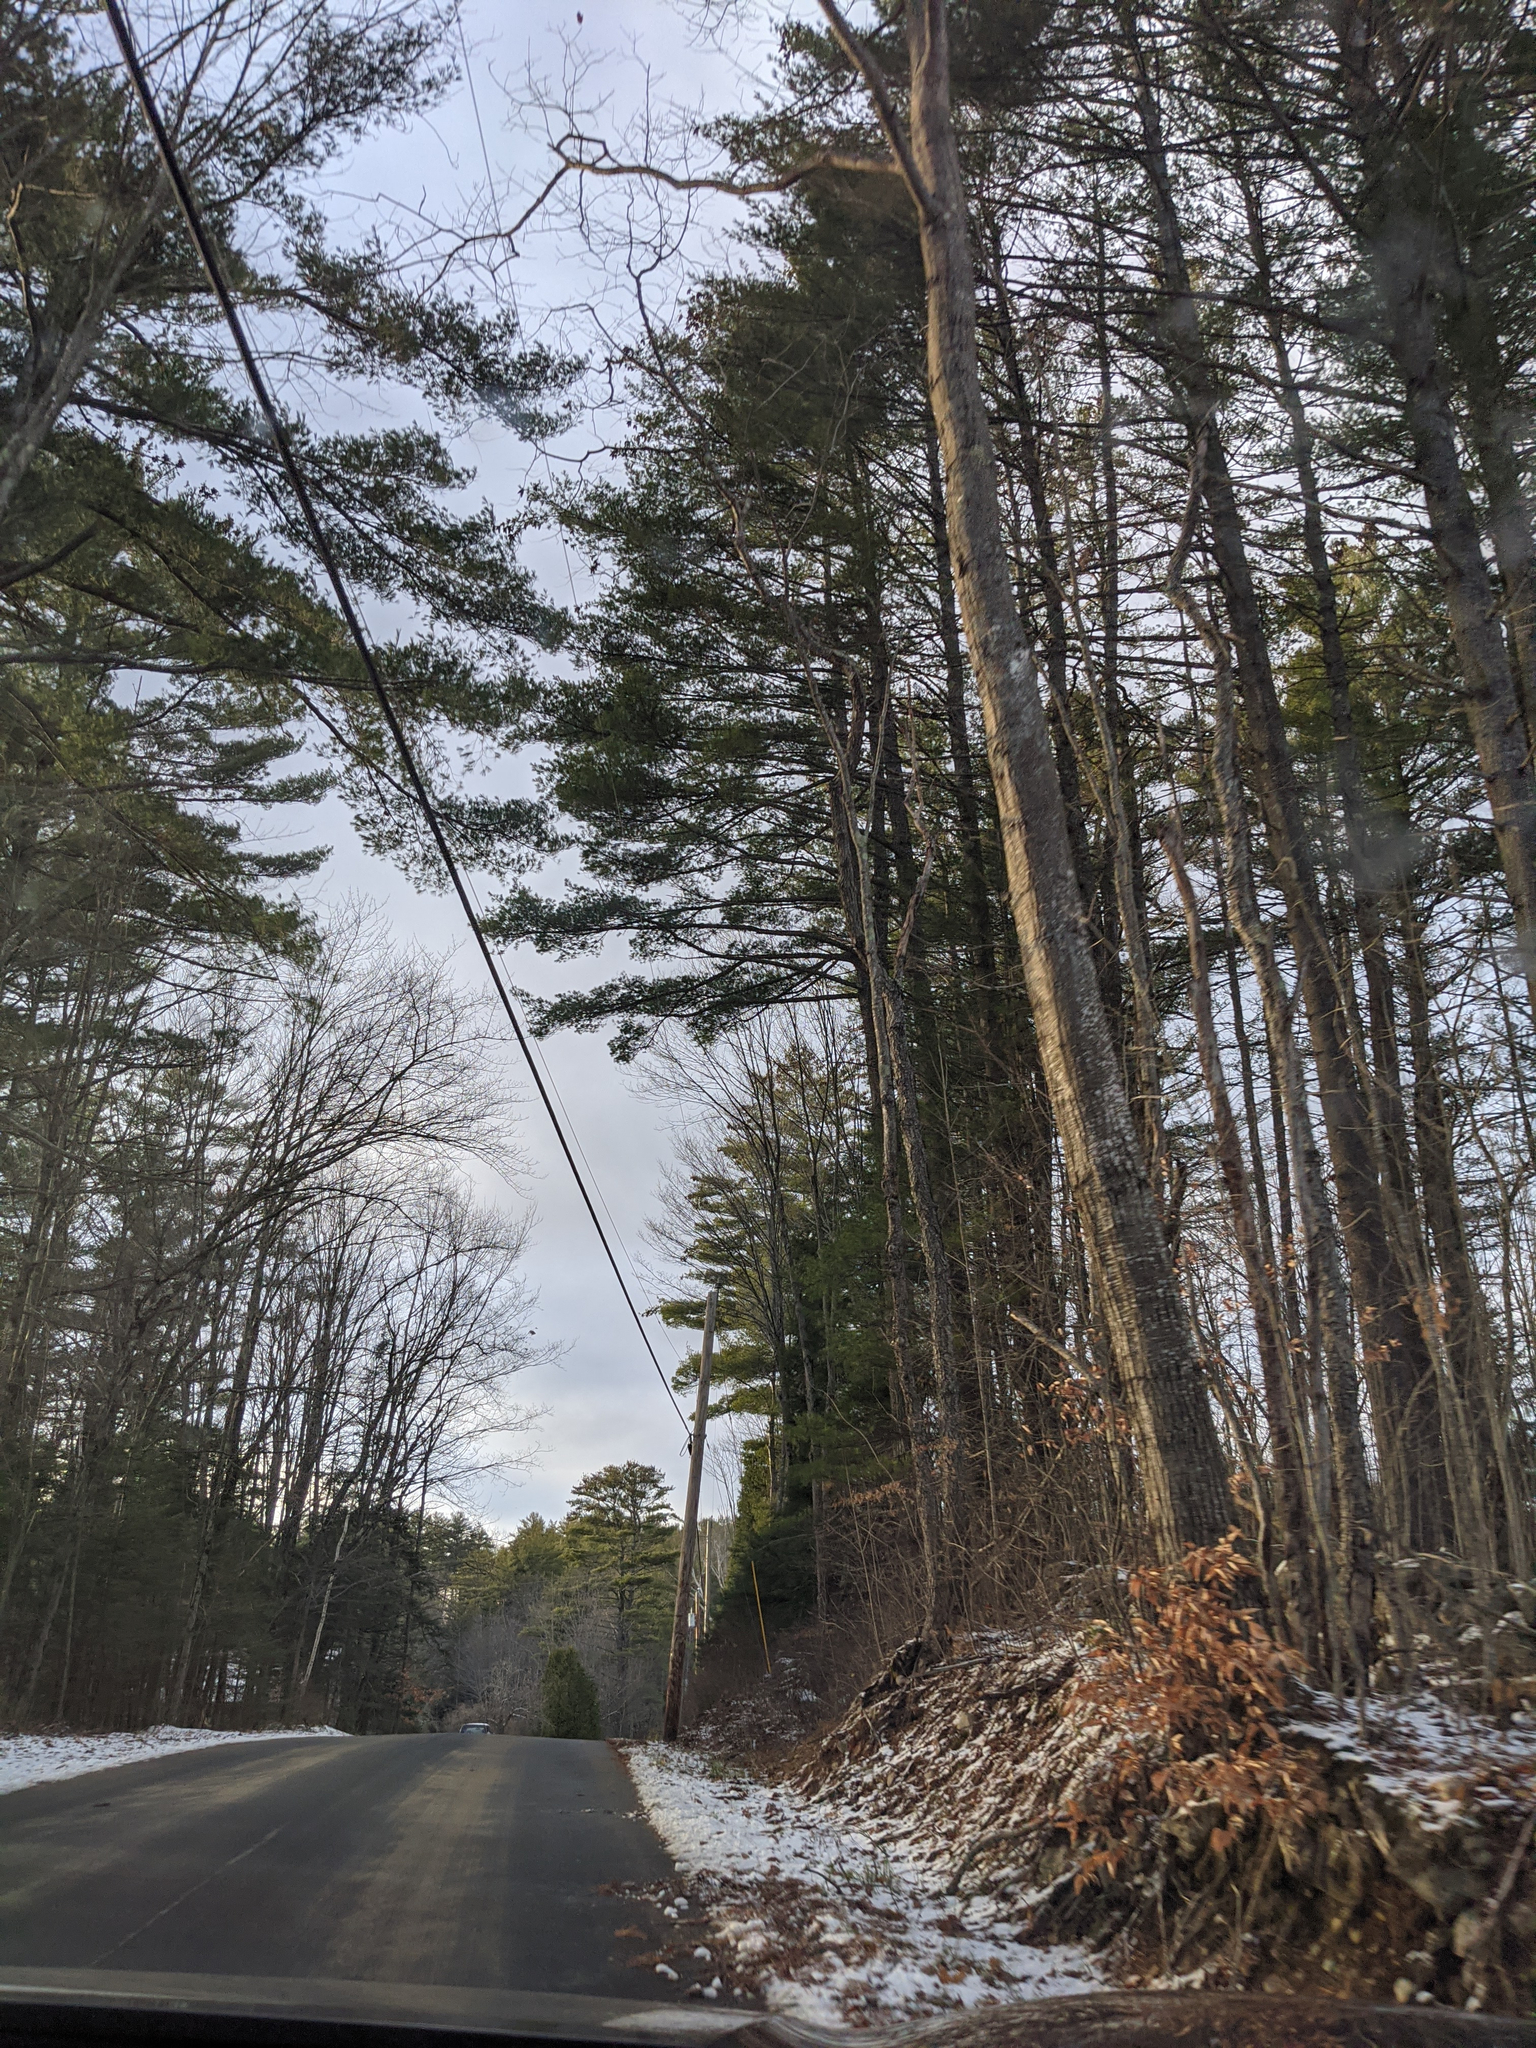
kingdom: Plantae
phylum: Tracheophyta
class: Pinopsida
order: Pinales
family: Pinaceae
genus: Pinus
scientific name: Pinus strobus
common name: Weymouth pine
